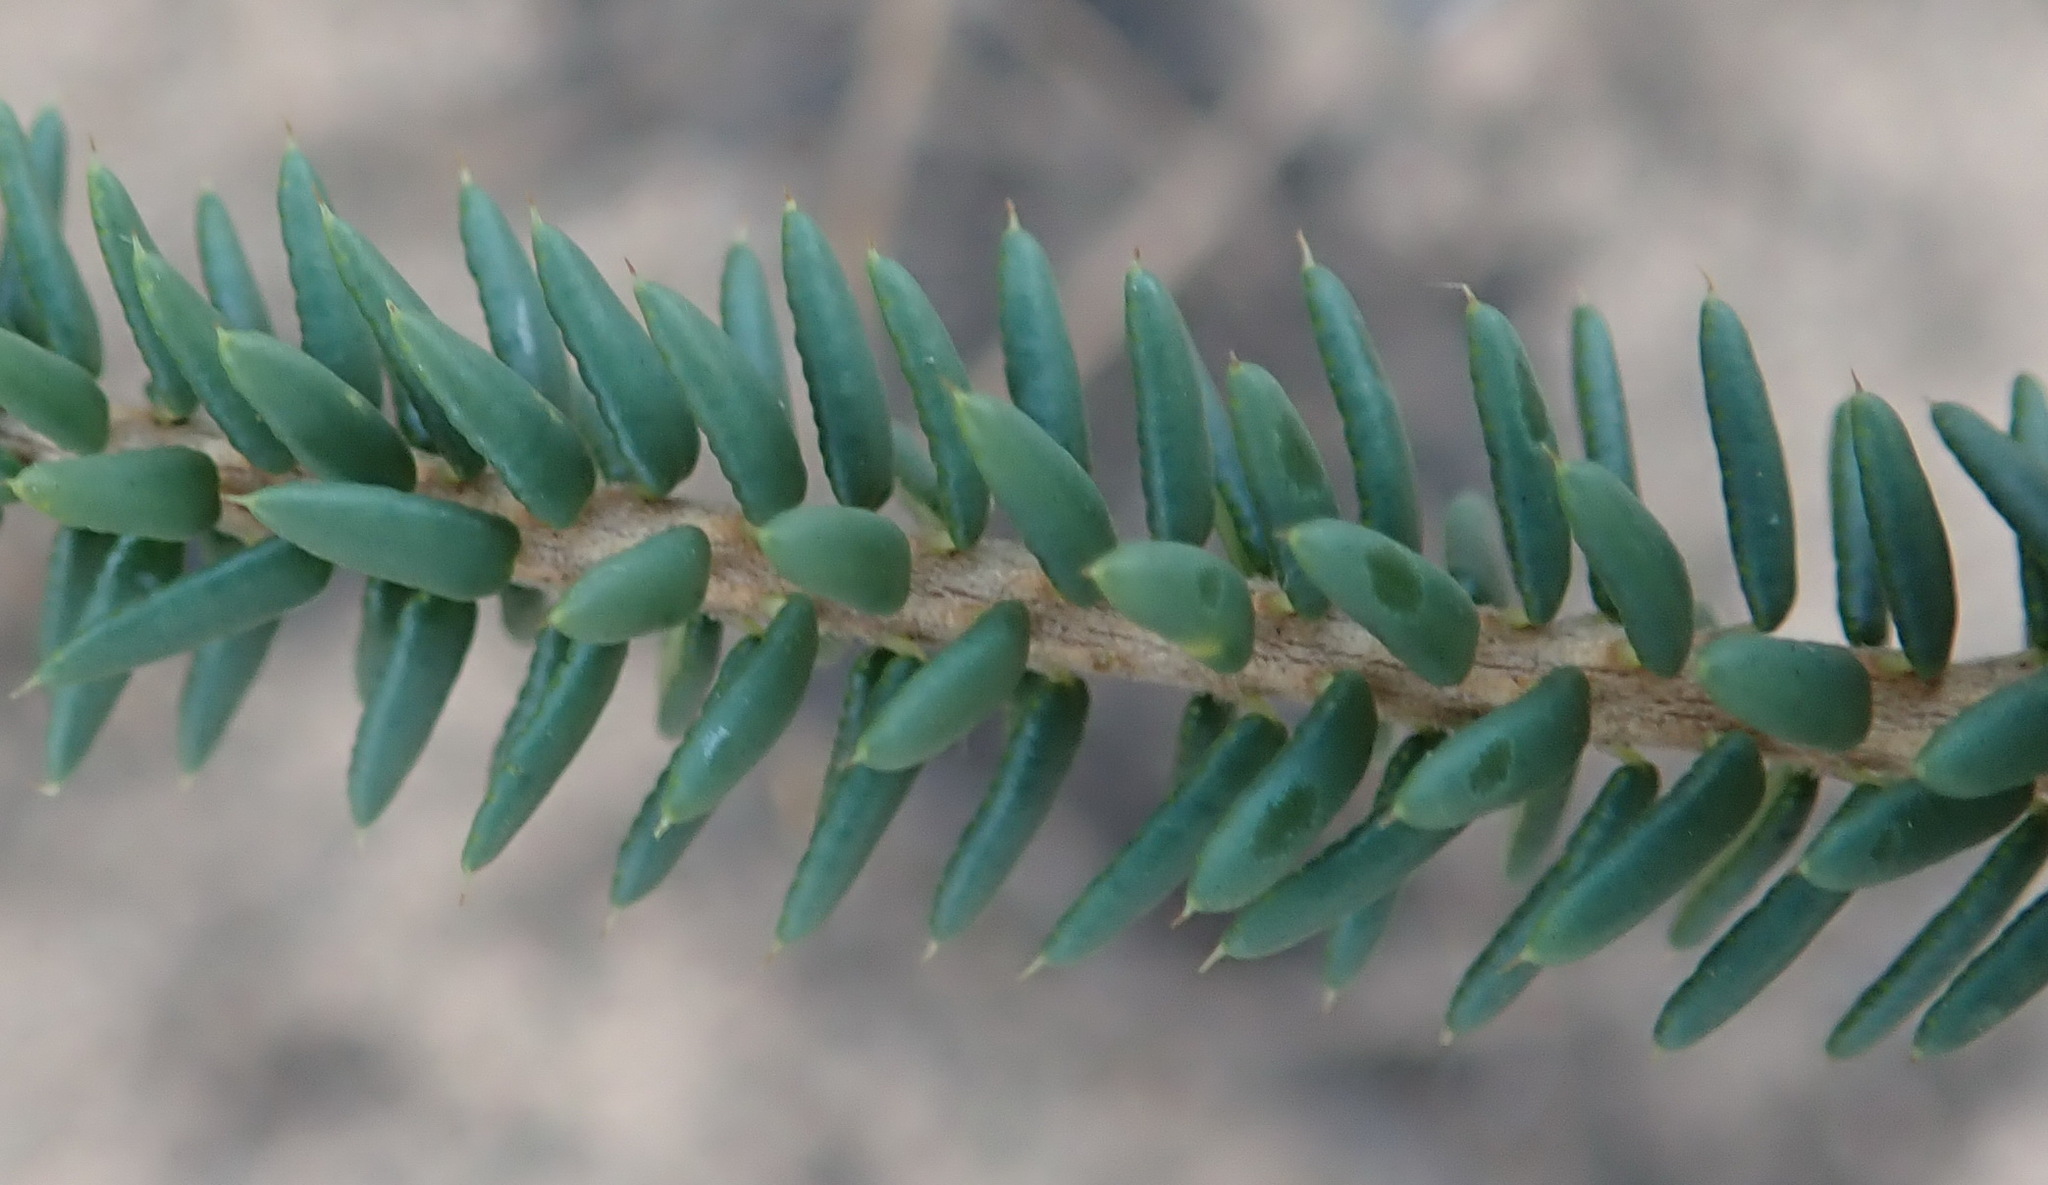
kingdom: Plantae
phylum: Tracheophyta
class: Magnoliopsida
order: Sapindales
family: Rutaceae
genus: Agathosma
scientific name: Agathosma apiculata
